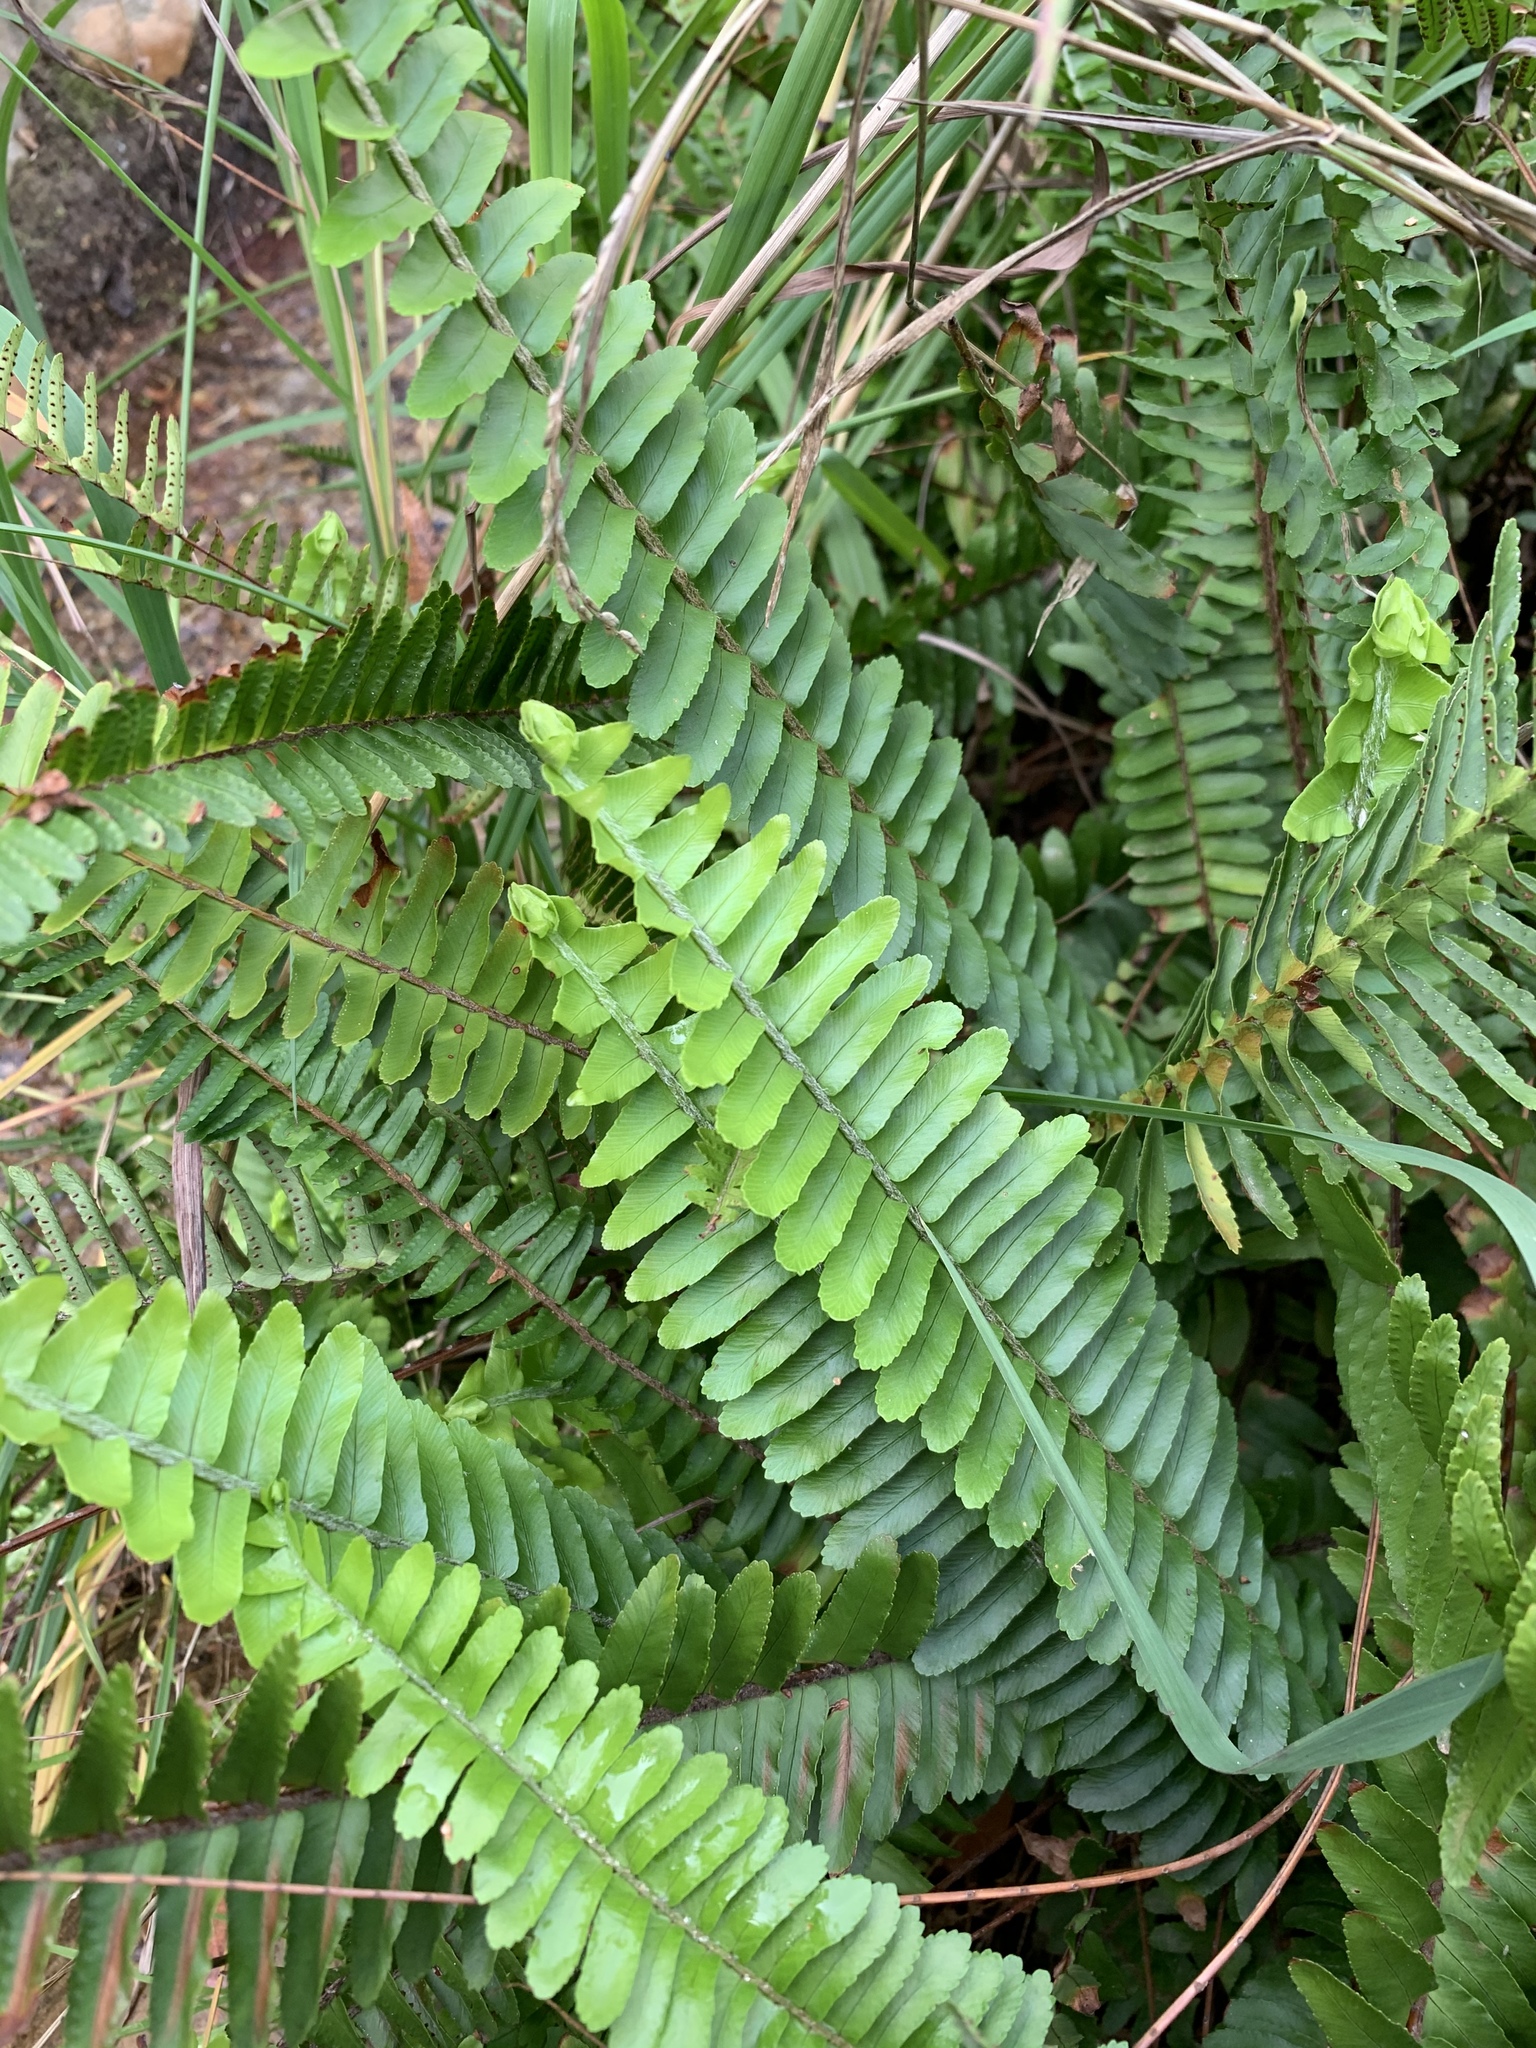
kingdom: Plantae
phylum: Tracheophyta
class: Polypodiopsida
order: Polypodiales
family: Nephrolepidaceae
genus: Nephrolepis
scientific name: Nephrolepis cordifolia
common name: Narrow swordfern
